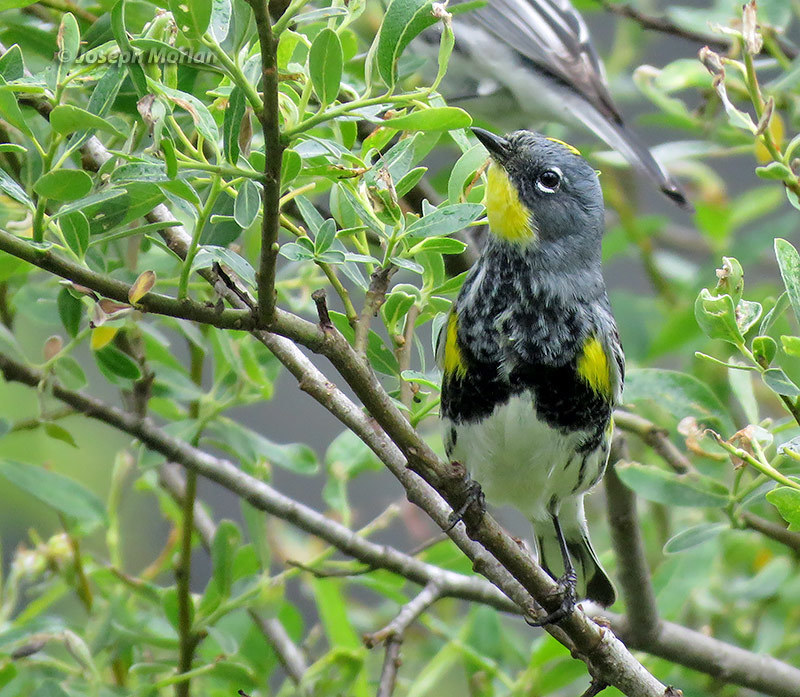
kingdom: Animalia
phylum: Chordata
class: Aves
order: Passeriformes
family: Parulidae
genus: Setophaga
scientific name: Setophaga coronata
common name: Myrtle warbler
